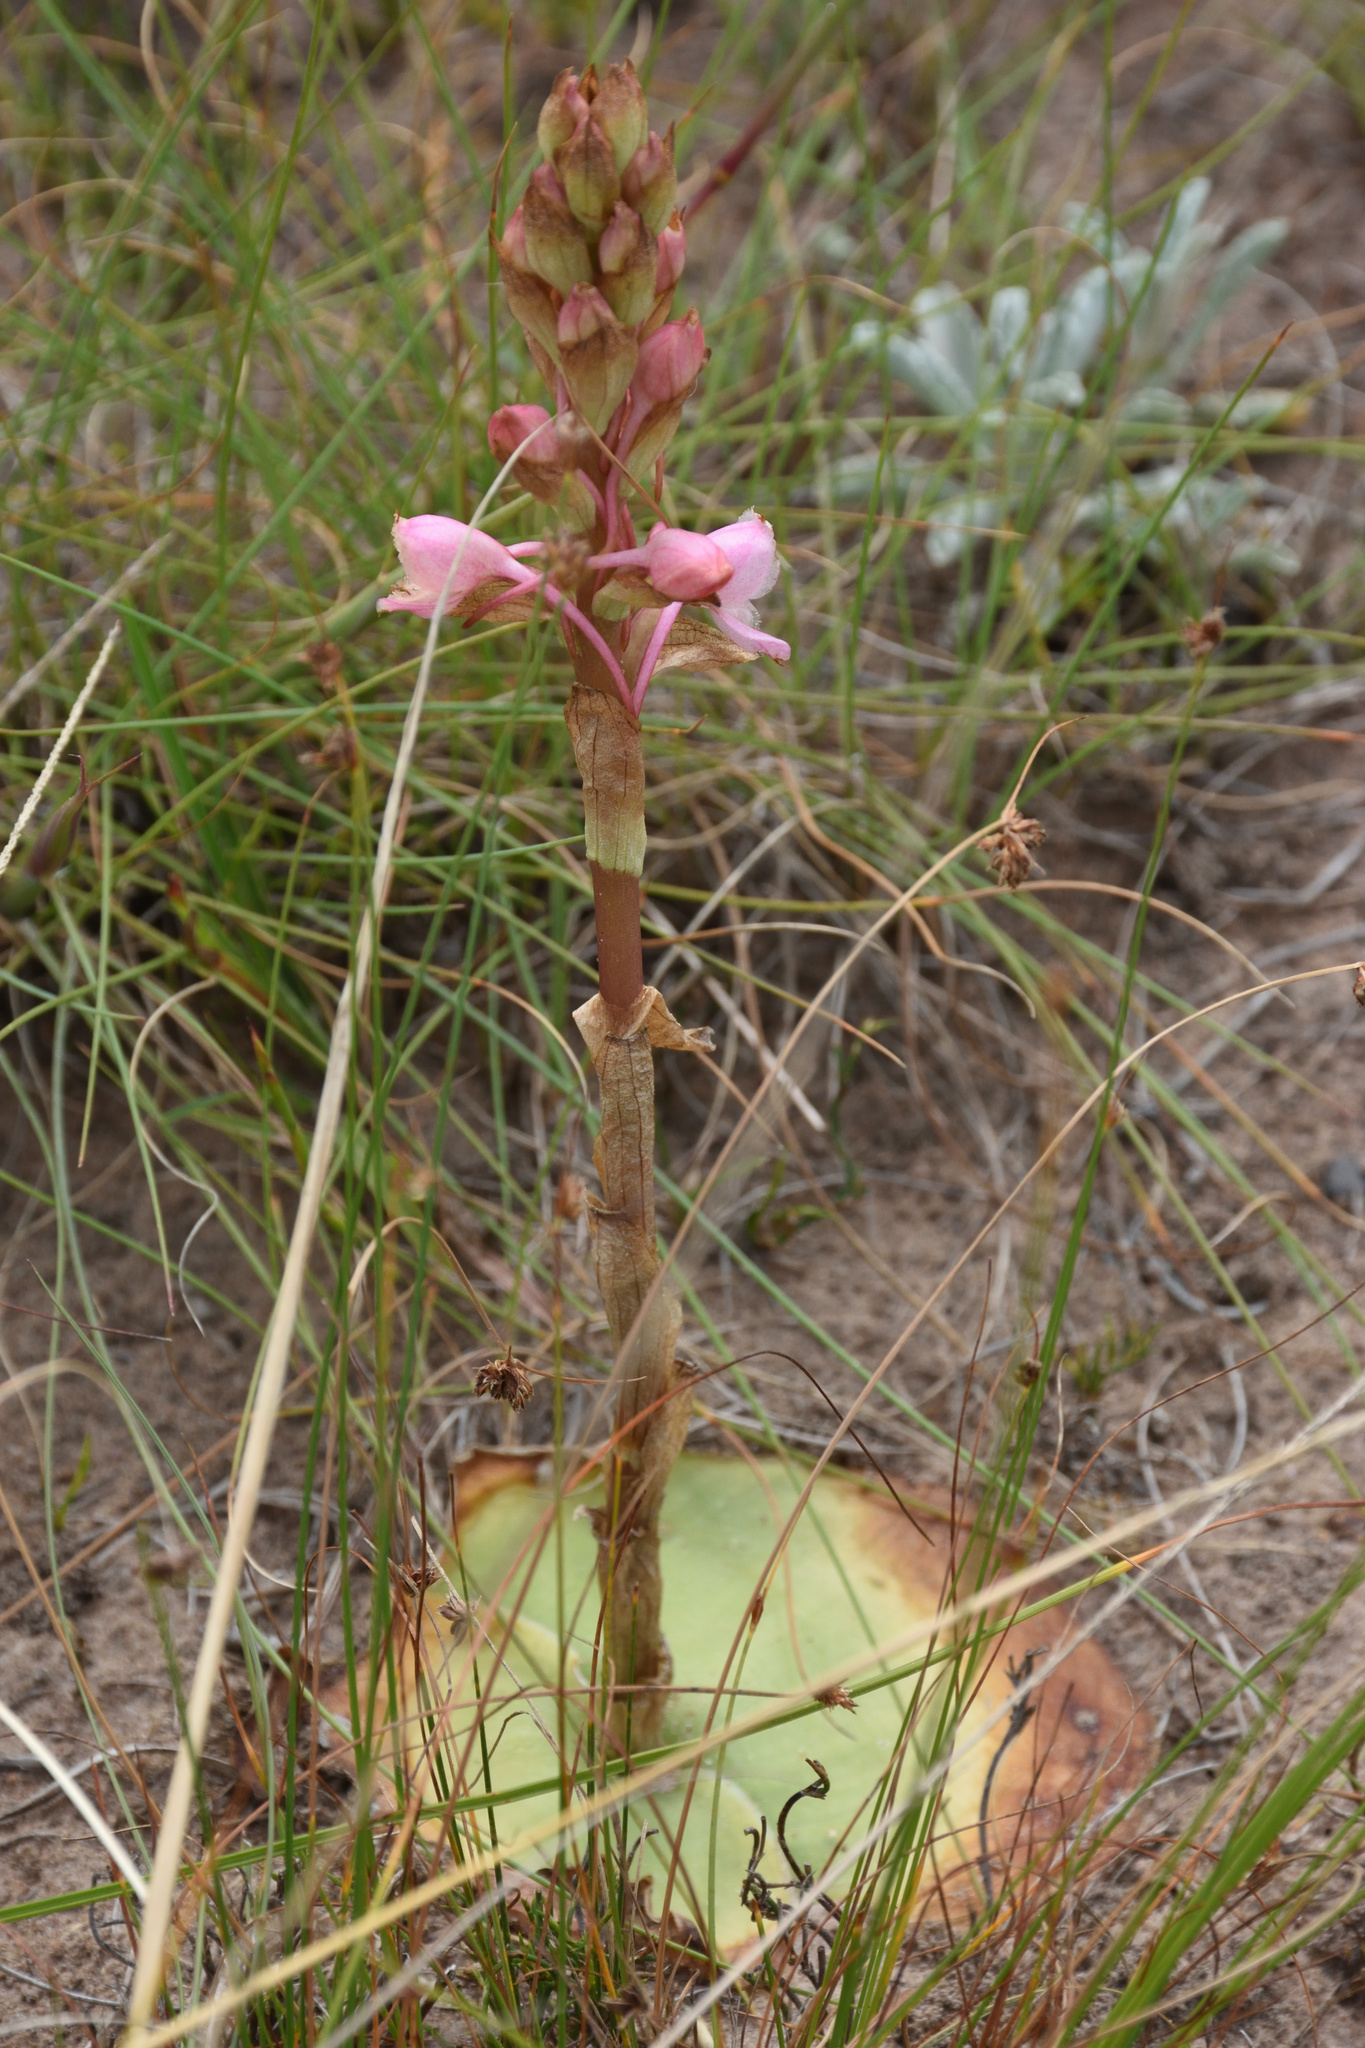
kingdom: Plantae
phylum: Tracheophyta
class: Liliopsida
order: Asparagales
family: Orchidaceae
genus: Satyrium
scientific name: Satyrium membranaceum
